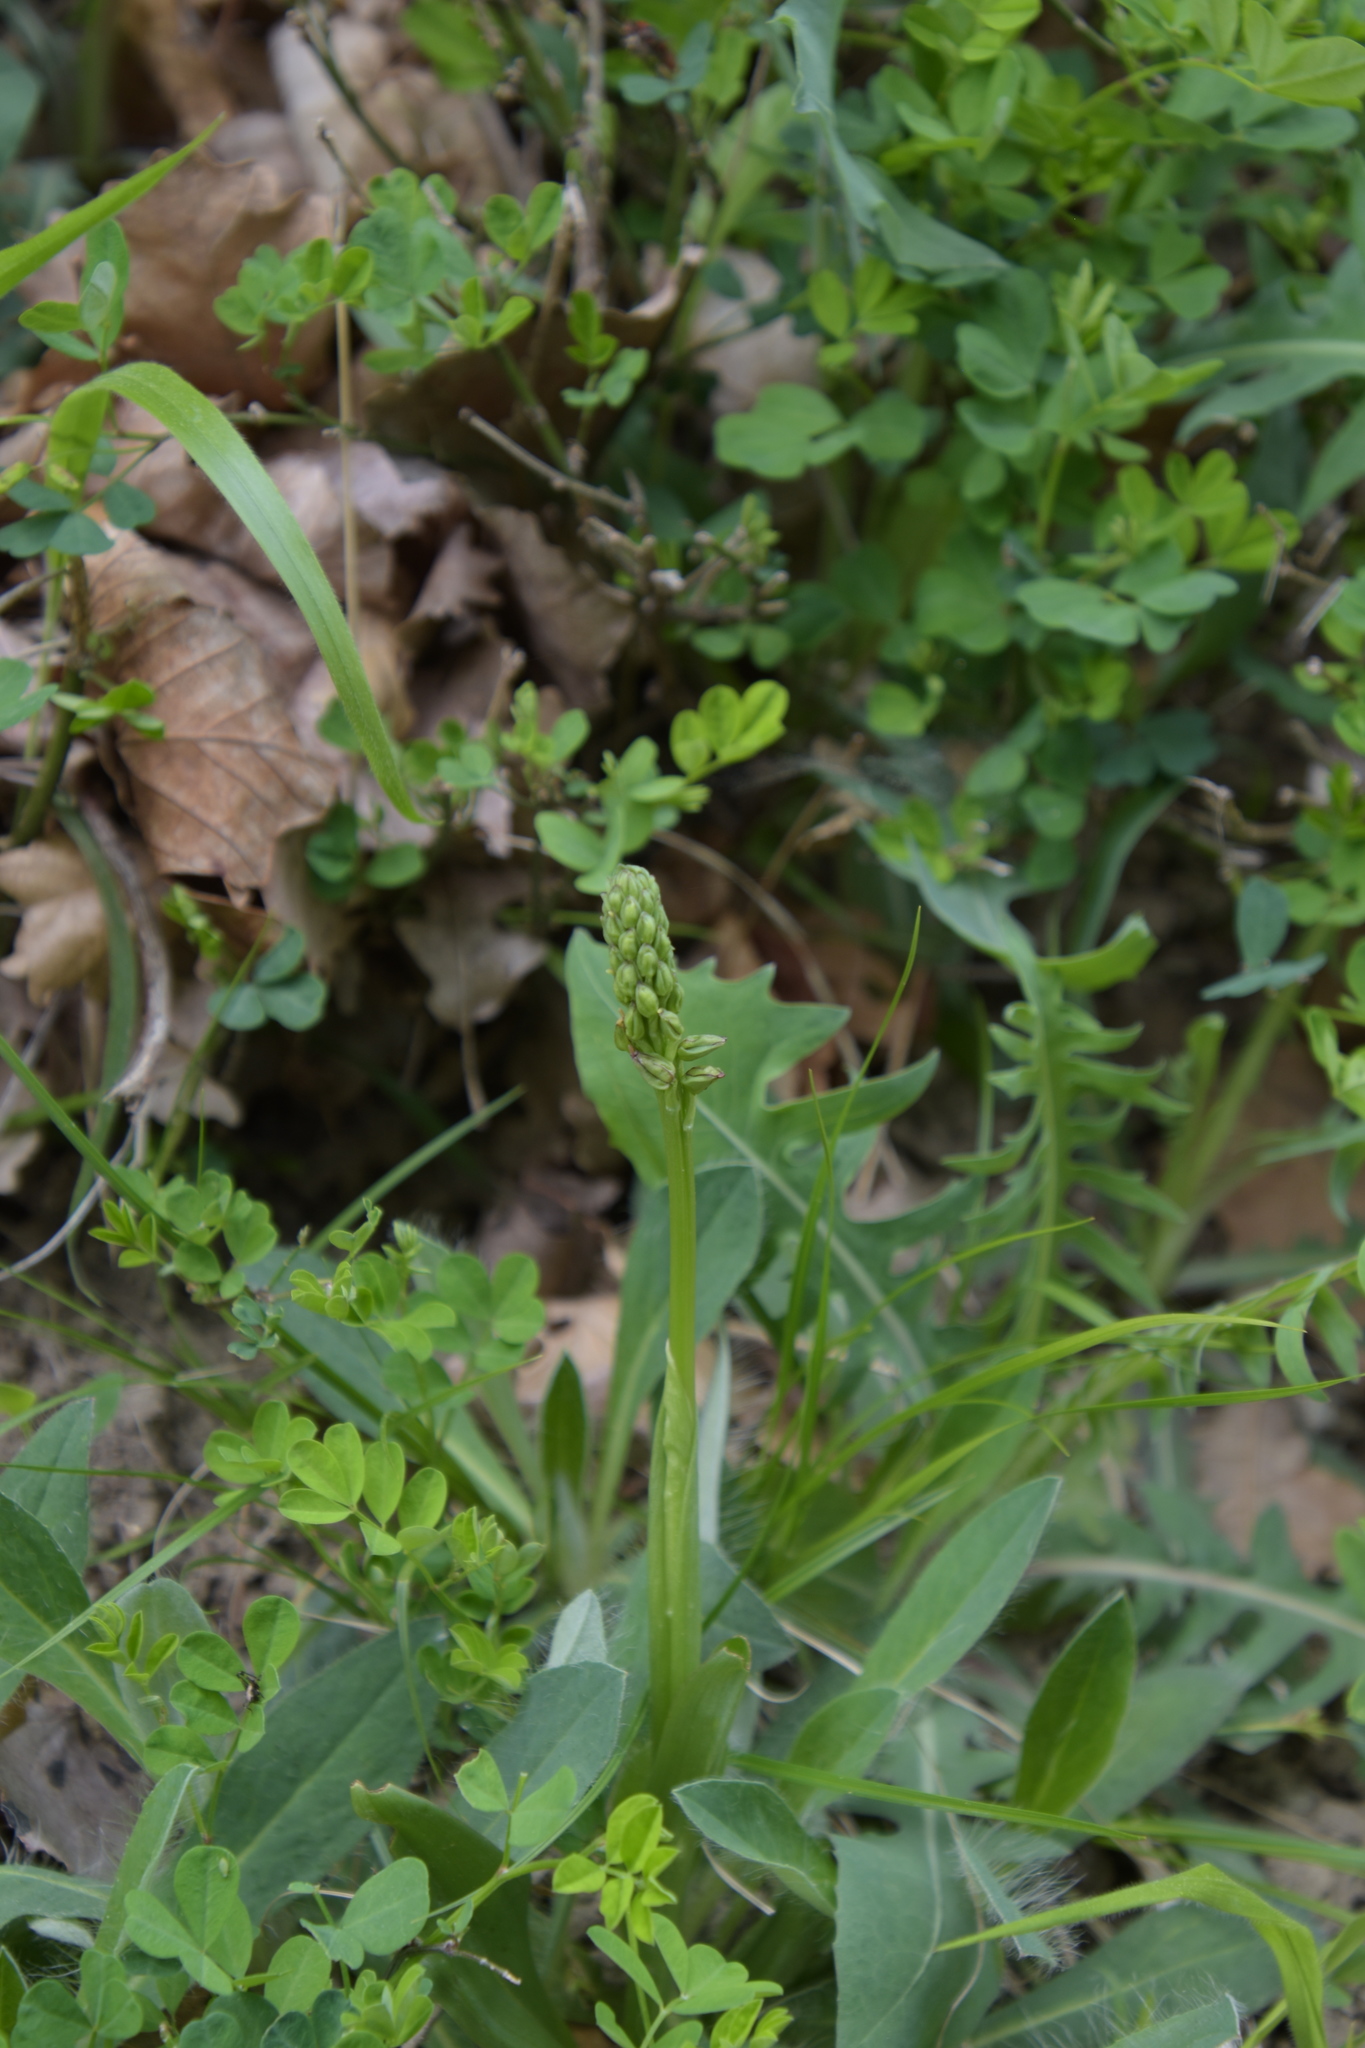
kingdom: Plantae
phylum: Tracheophyta
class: Liliopsida
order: Asparagales
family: Orchidaceae
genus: Orchis
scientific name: Orchis anthropophora
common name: Man orchid
